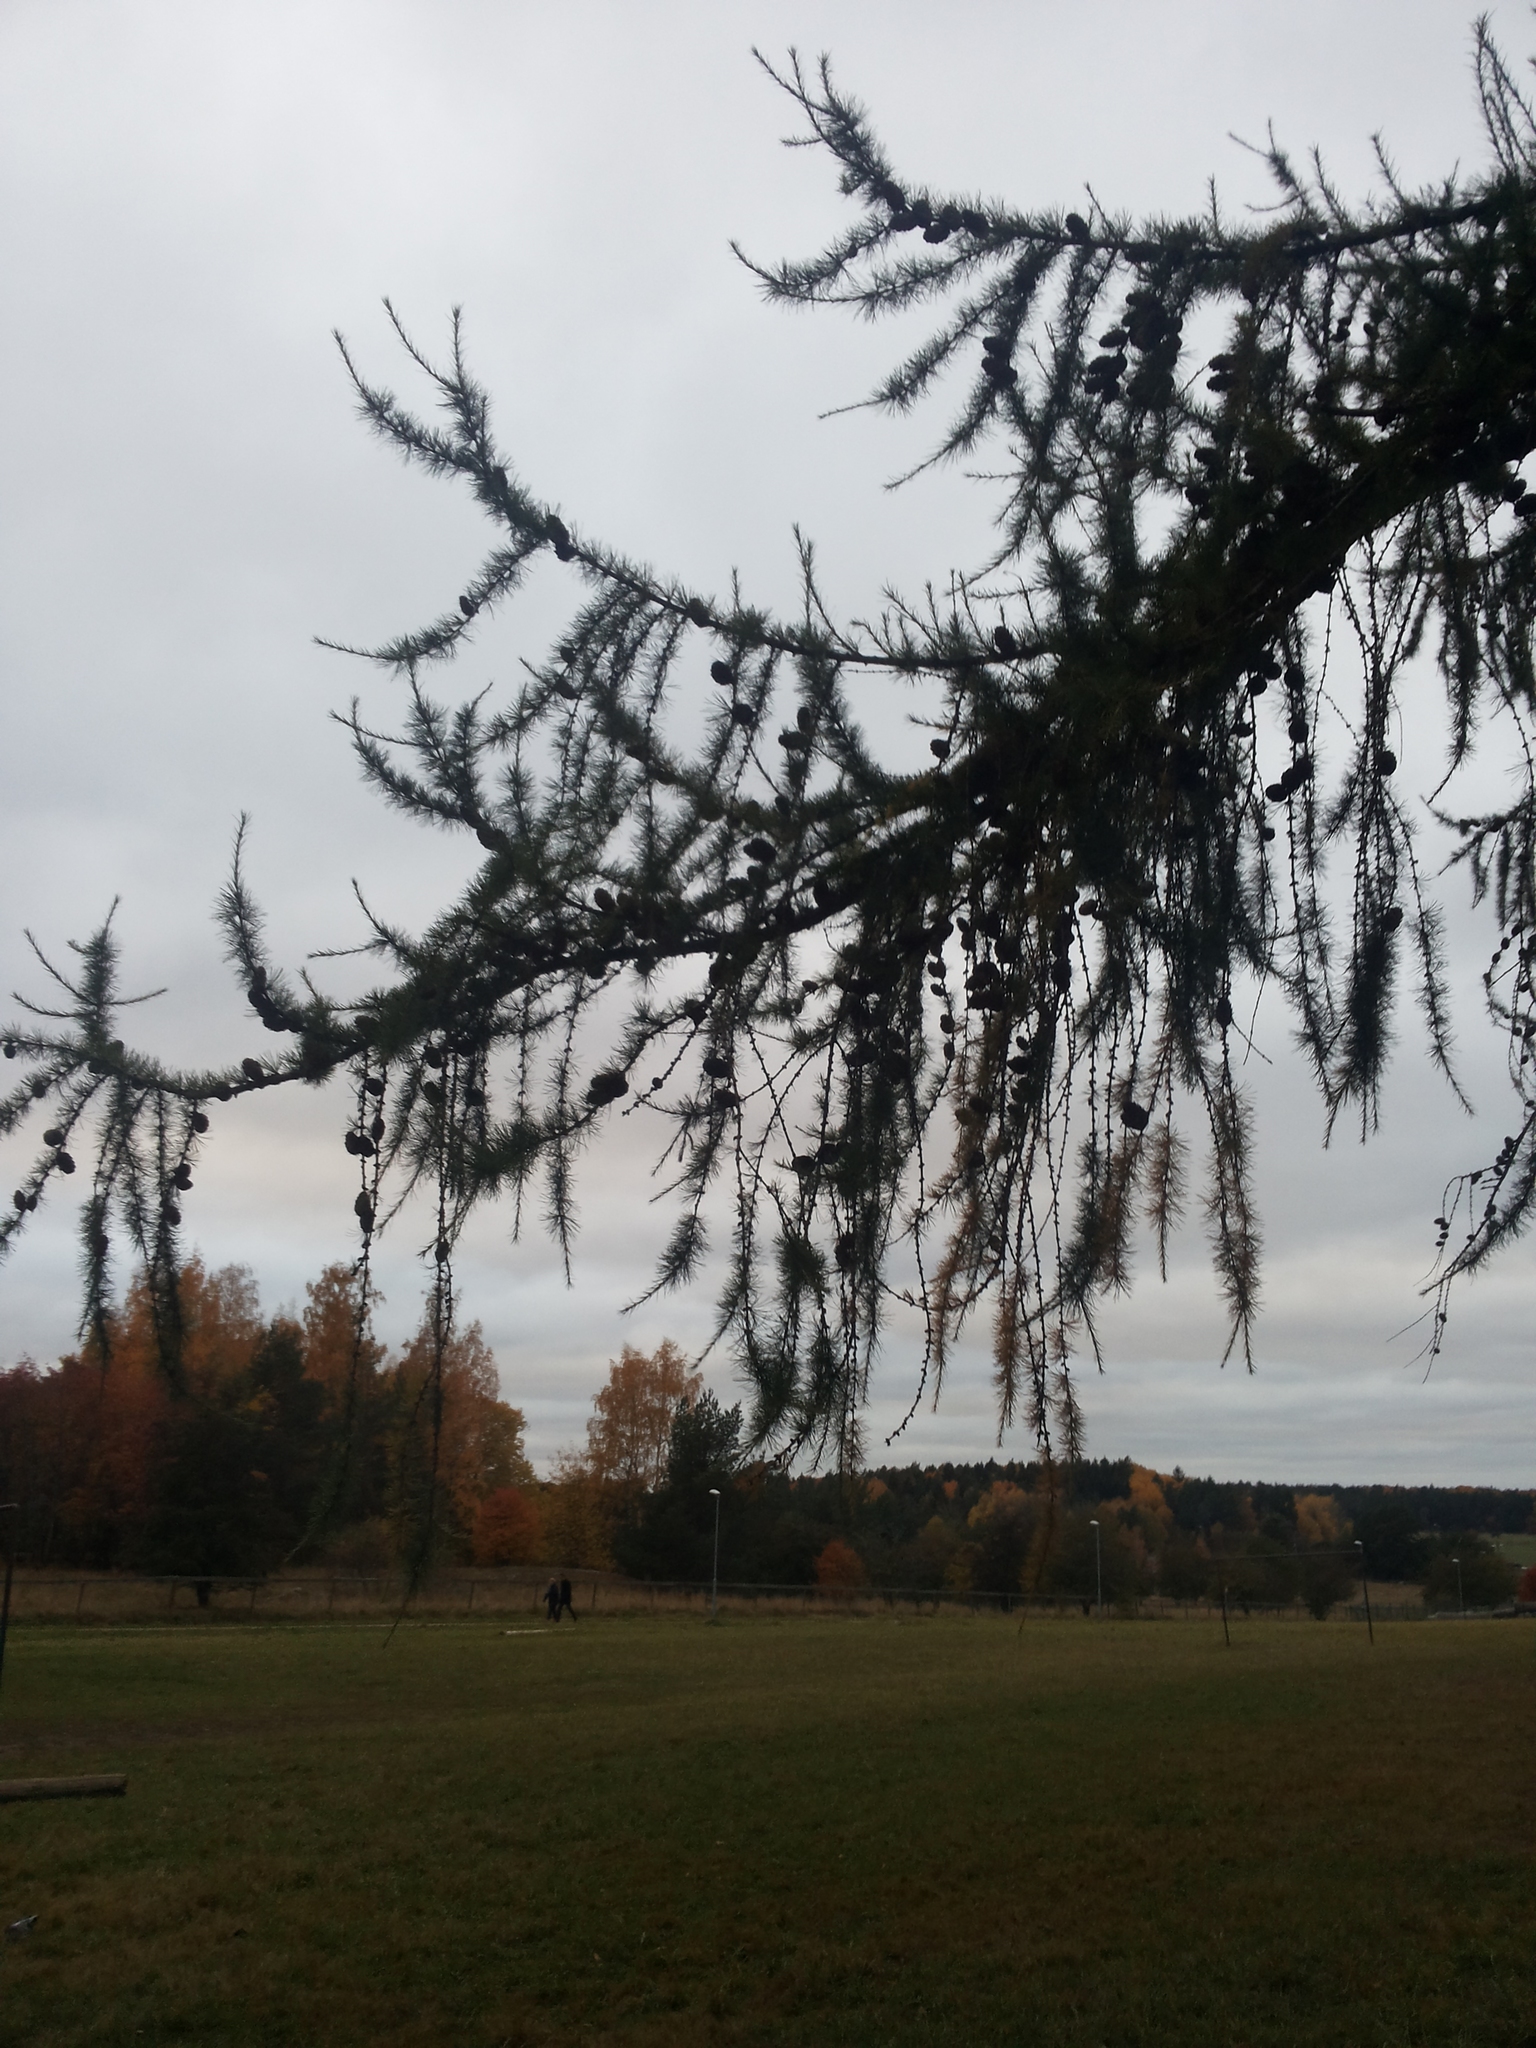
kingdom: Plantae
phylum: Tracheophyta
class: Pinopsida
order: Pinales
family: Pinaceae
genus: Larix
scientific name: Larix decidua
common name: European larch
